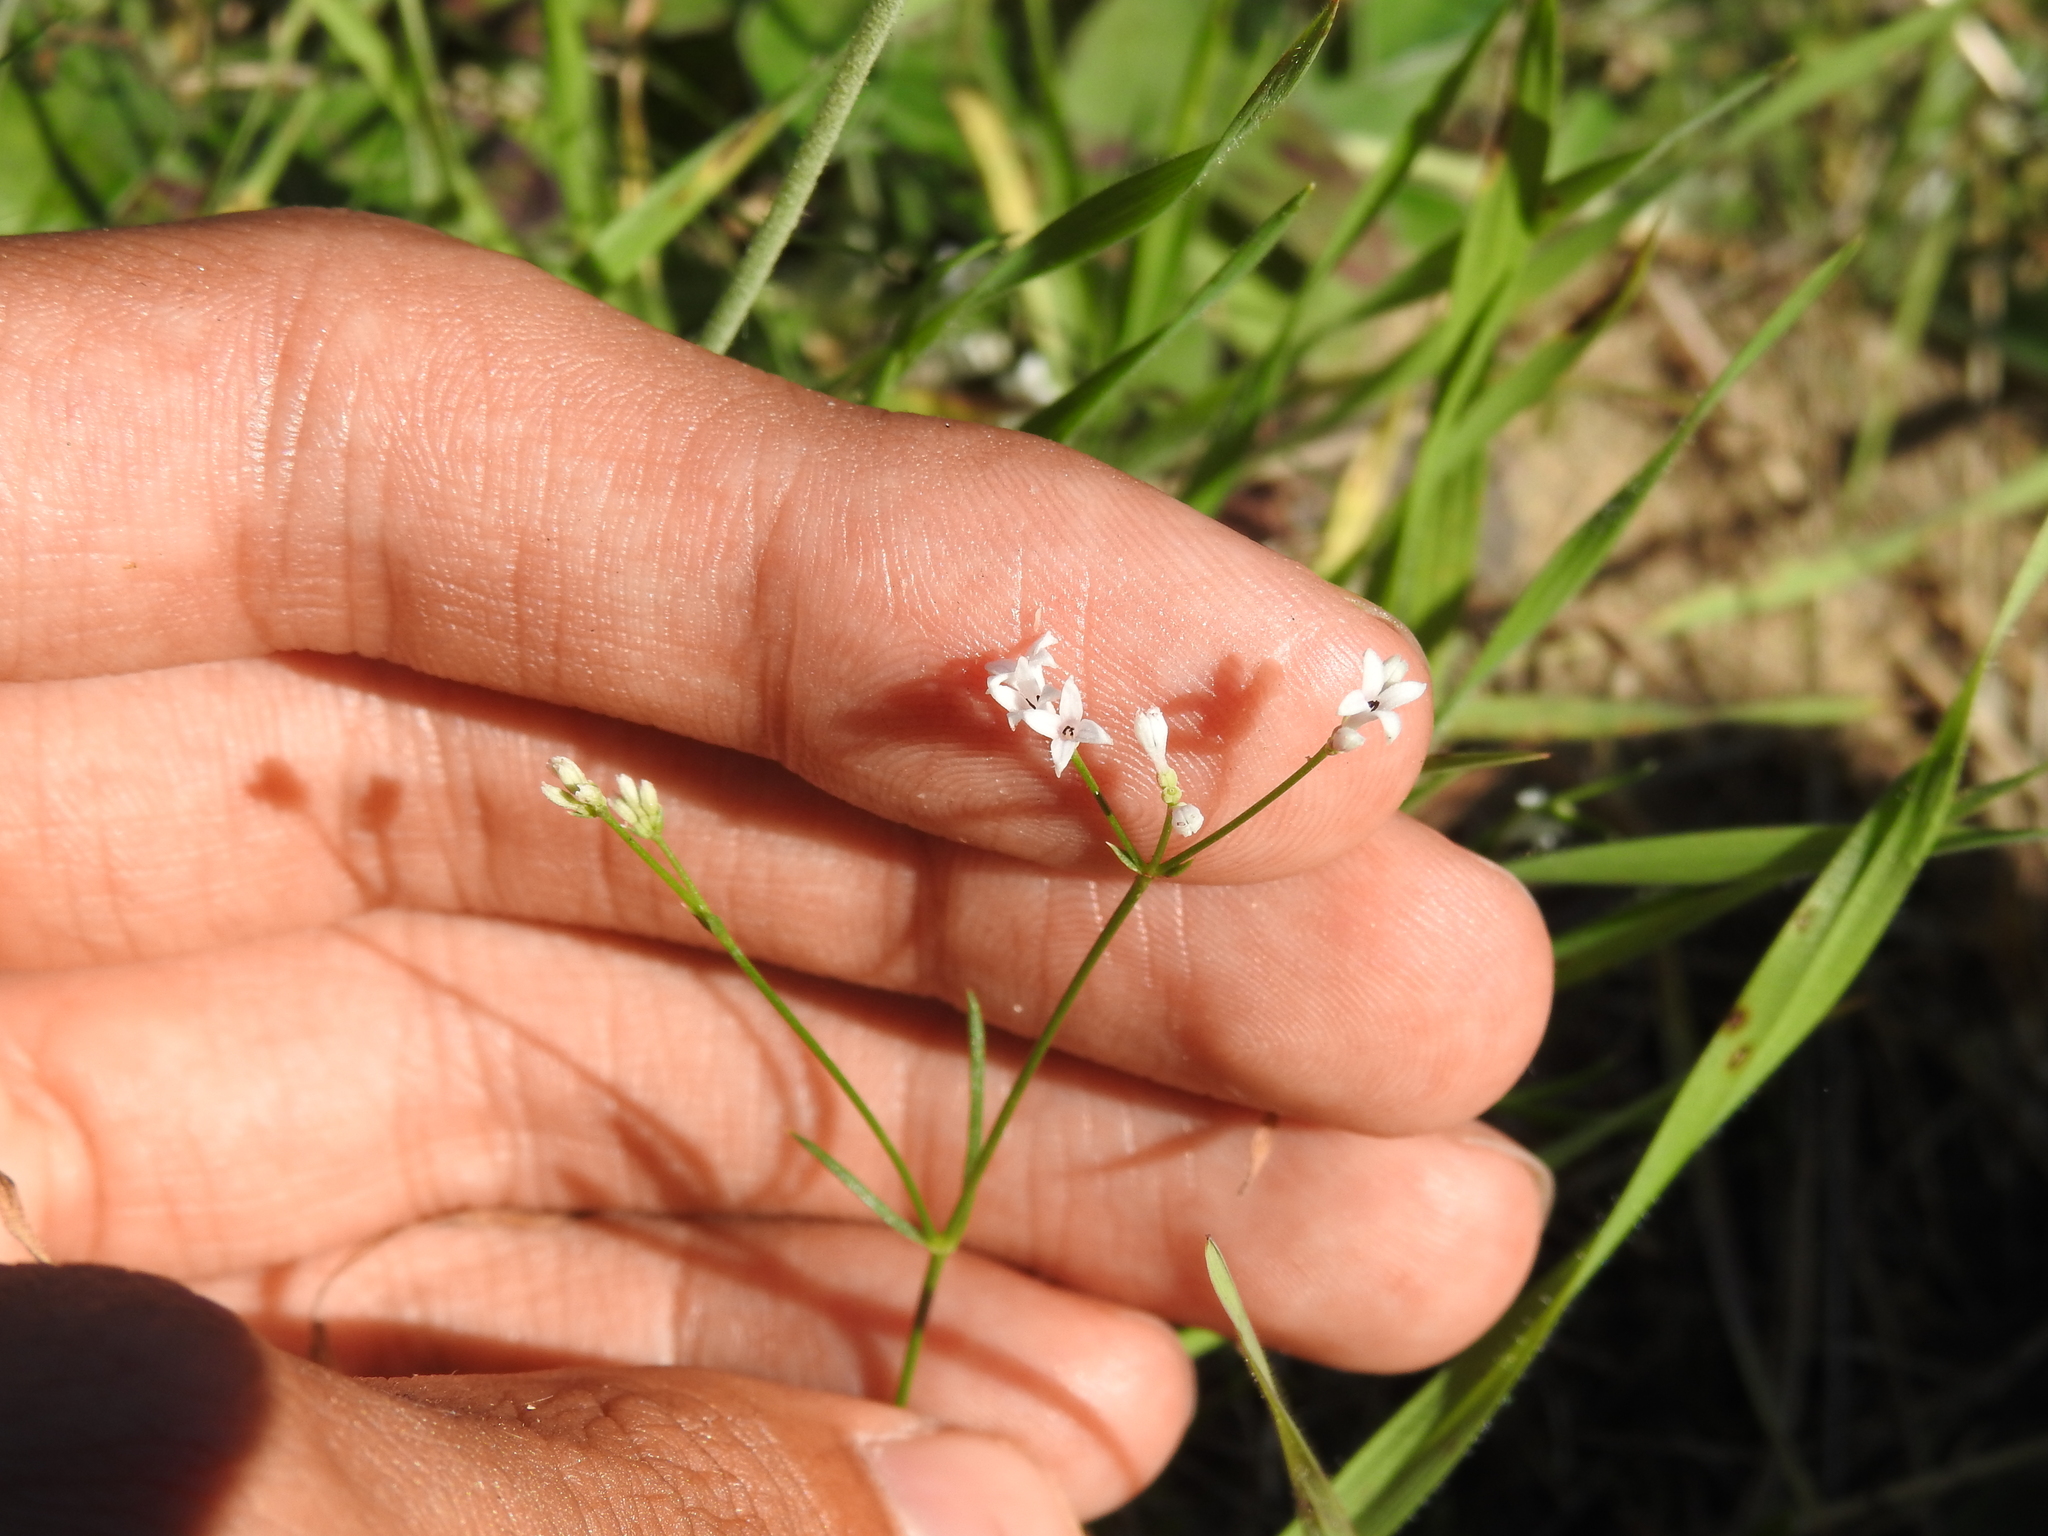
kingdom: Plantae
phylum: Tracheophyta
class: Magnoliopsida
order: Gentianales
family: Rubiaceae
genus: Cynanchica
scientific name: Cynanchica pyrenaica
